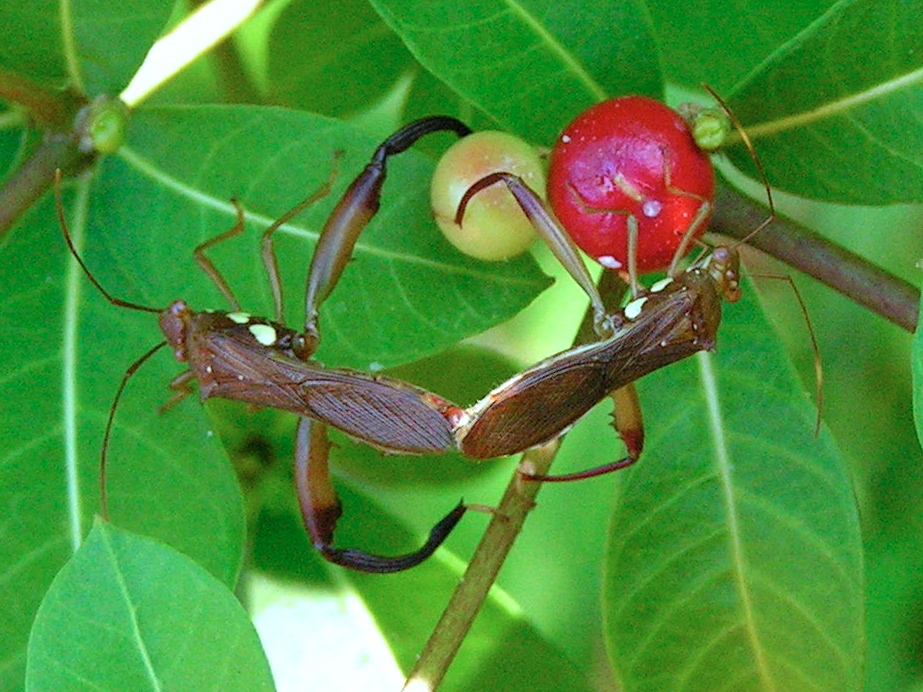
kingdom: Animalia
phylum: Arthropoda
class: Insecta
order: Hemiptera
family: Alydidae
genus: Hyalymenus
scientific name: Hyalymenus
